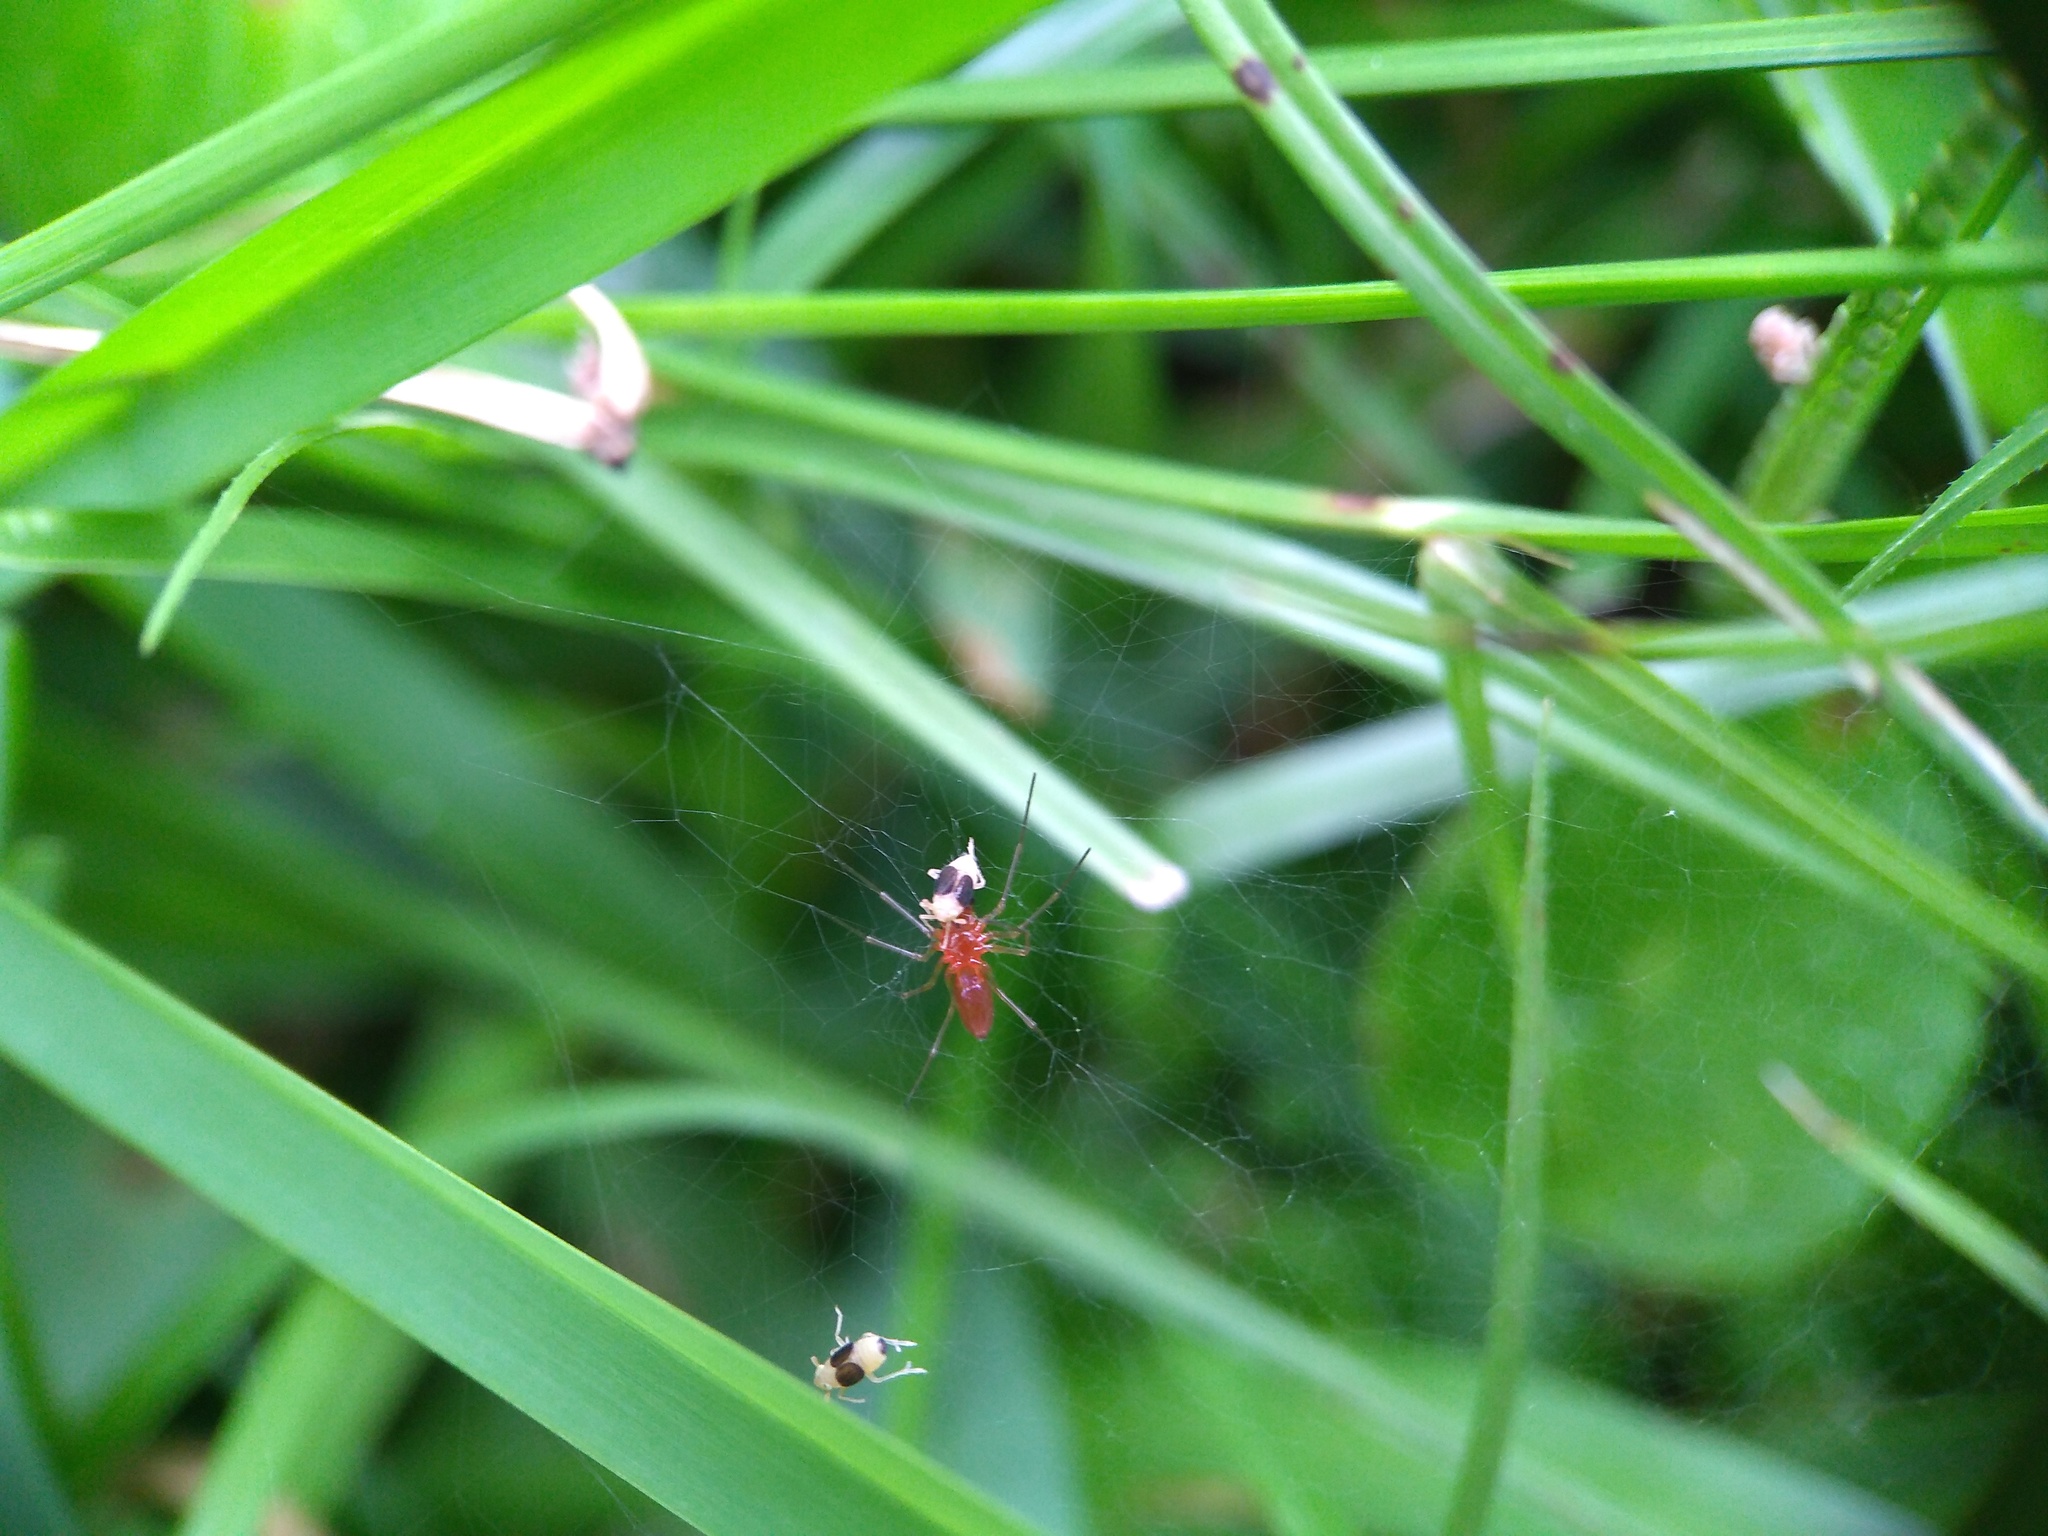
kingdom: Animalia
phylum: Arthropoda
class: Arachnida
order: Araneae
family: Linyphiidae
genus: Florinda
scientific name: Florinda coccinea
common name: Black-tailed red sheetweaver
